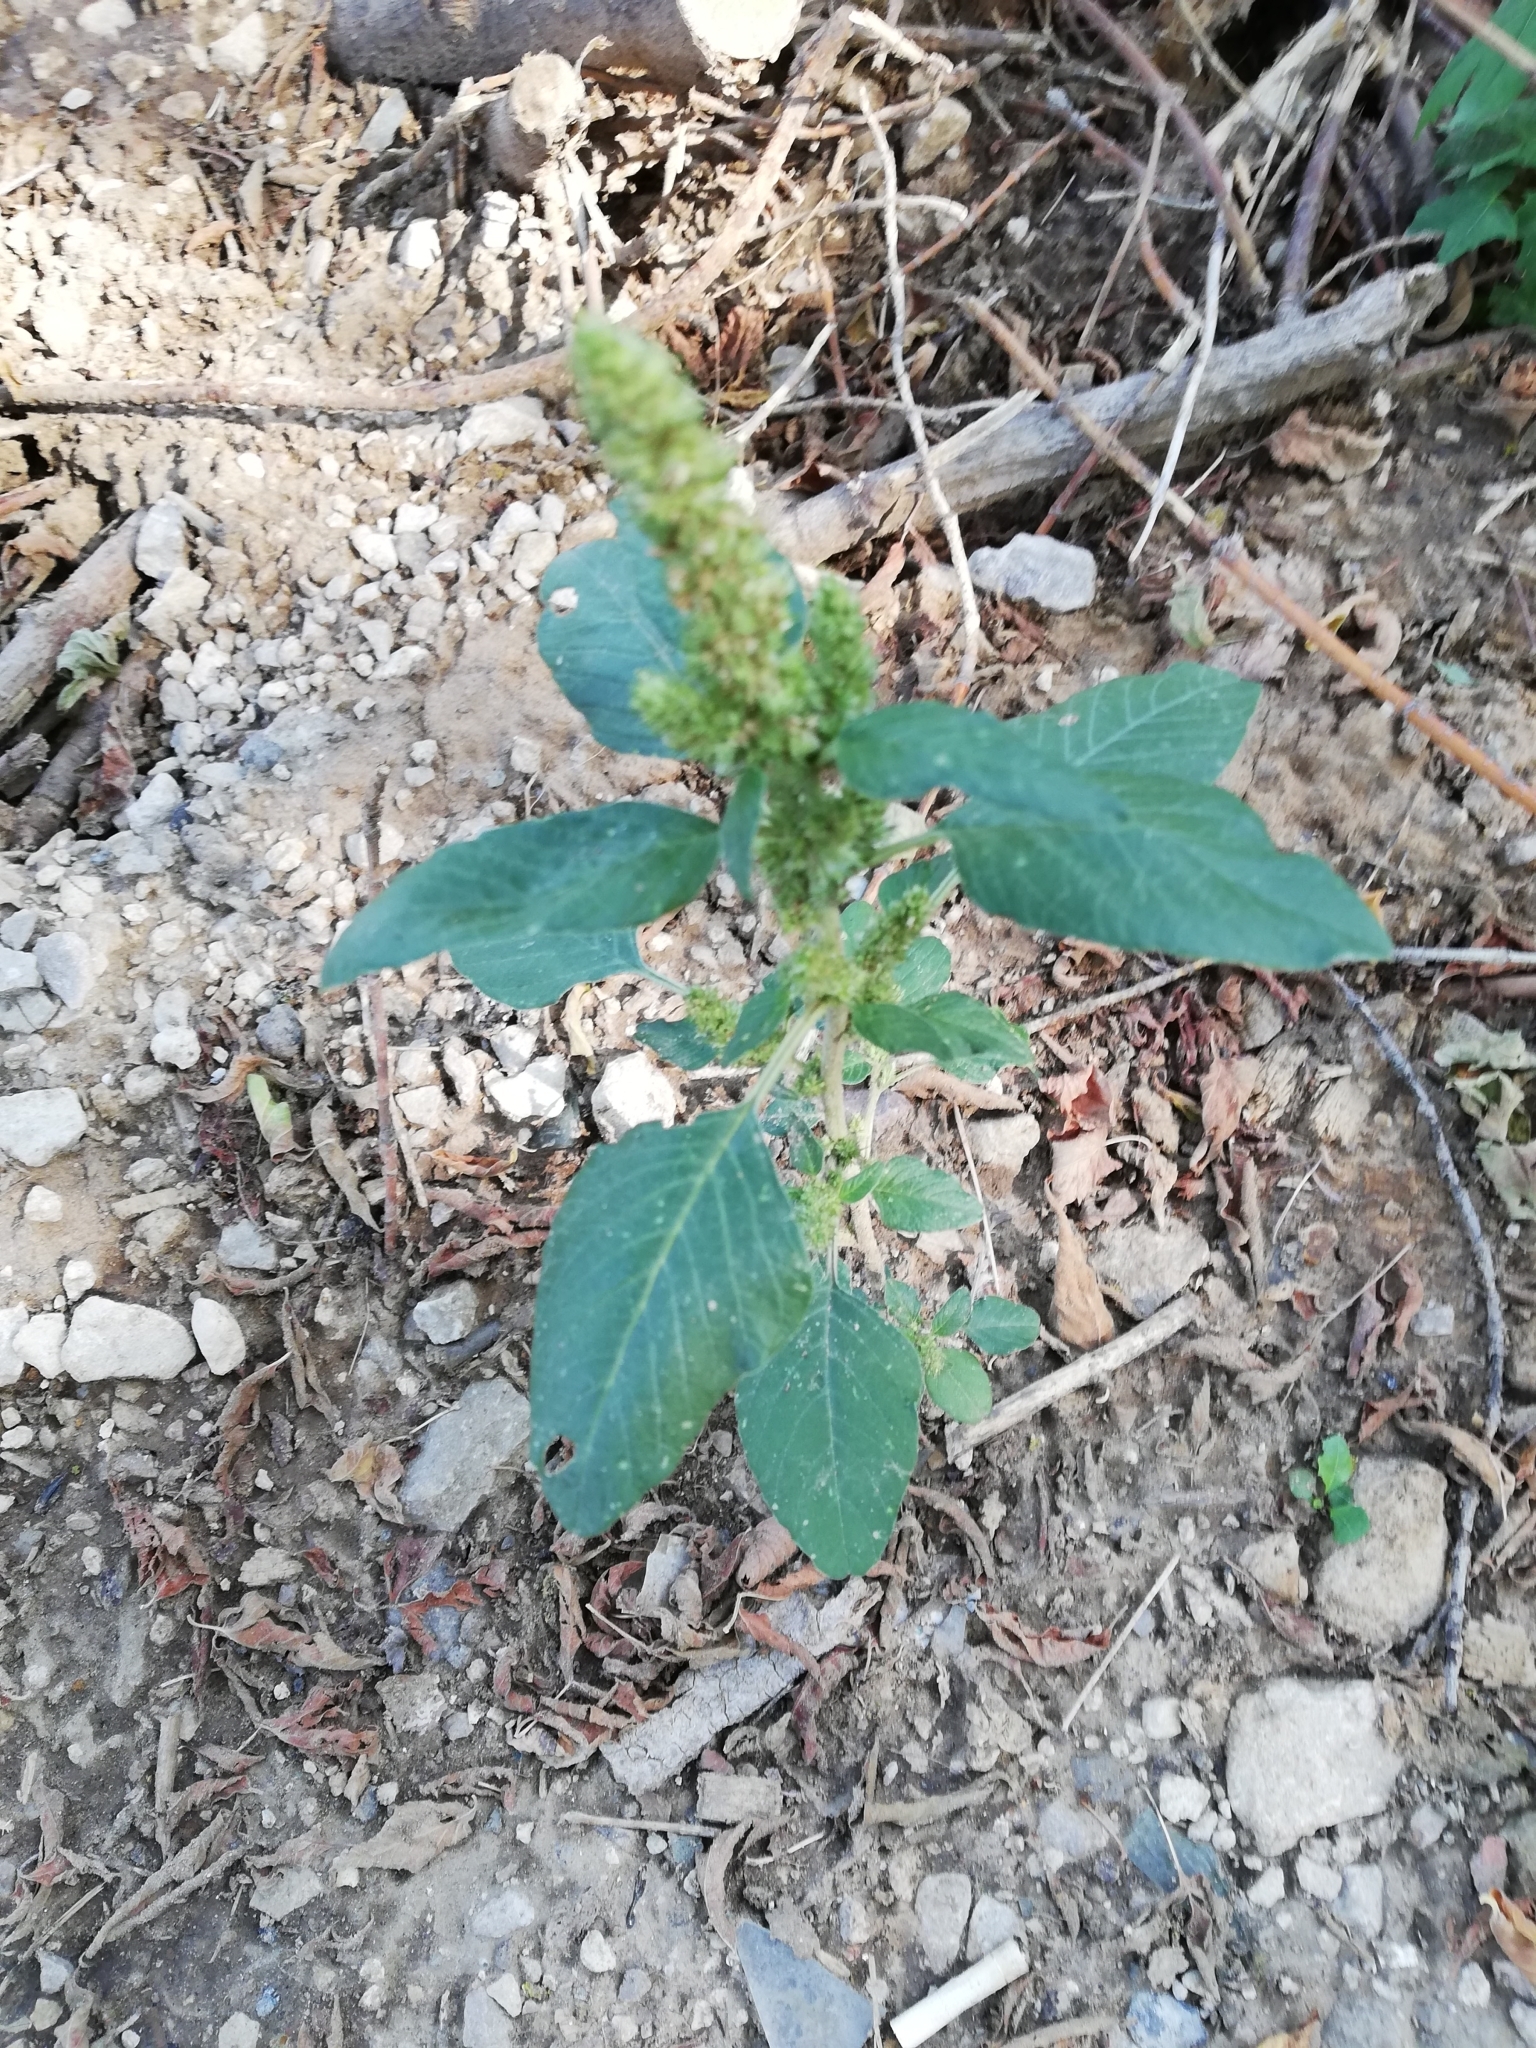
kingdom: Plantae
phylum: Tracheophyta
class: Magnoliopsida
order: Caryophyllales
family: Amaranthaceae
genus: Amaranthus
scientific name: Amaranthus retroflexus
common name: Redroot amaranth
